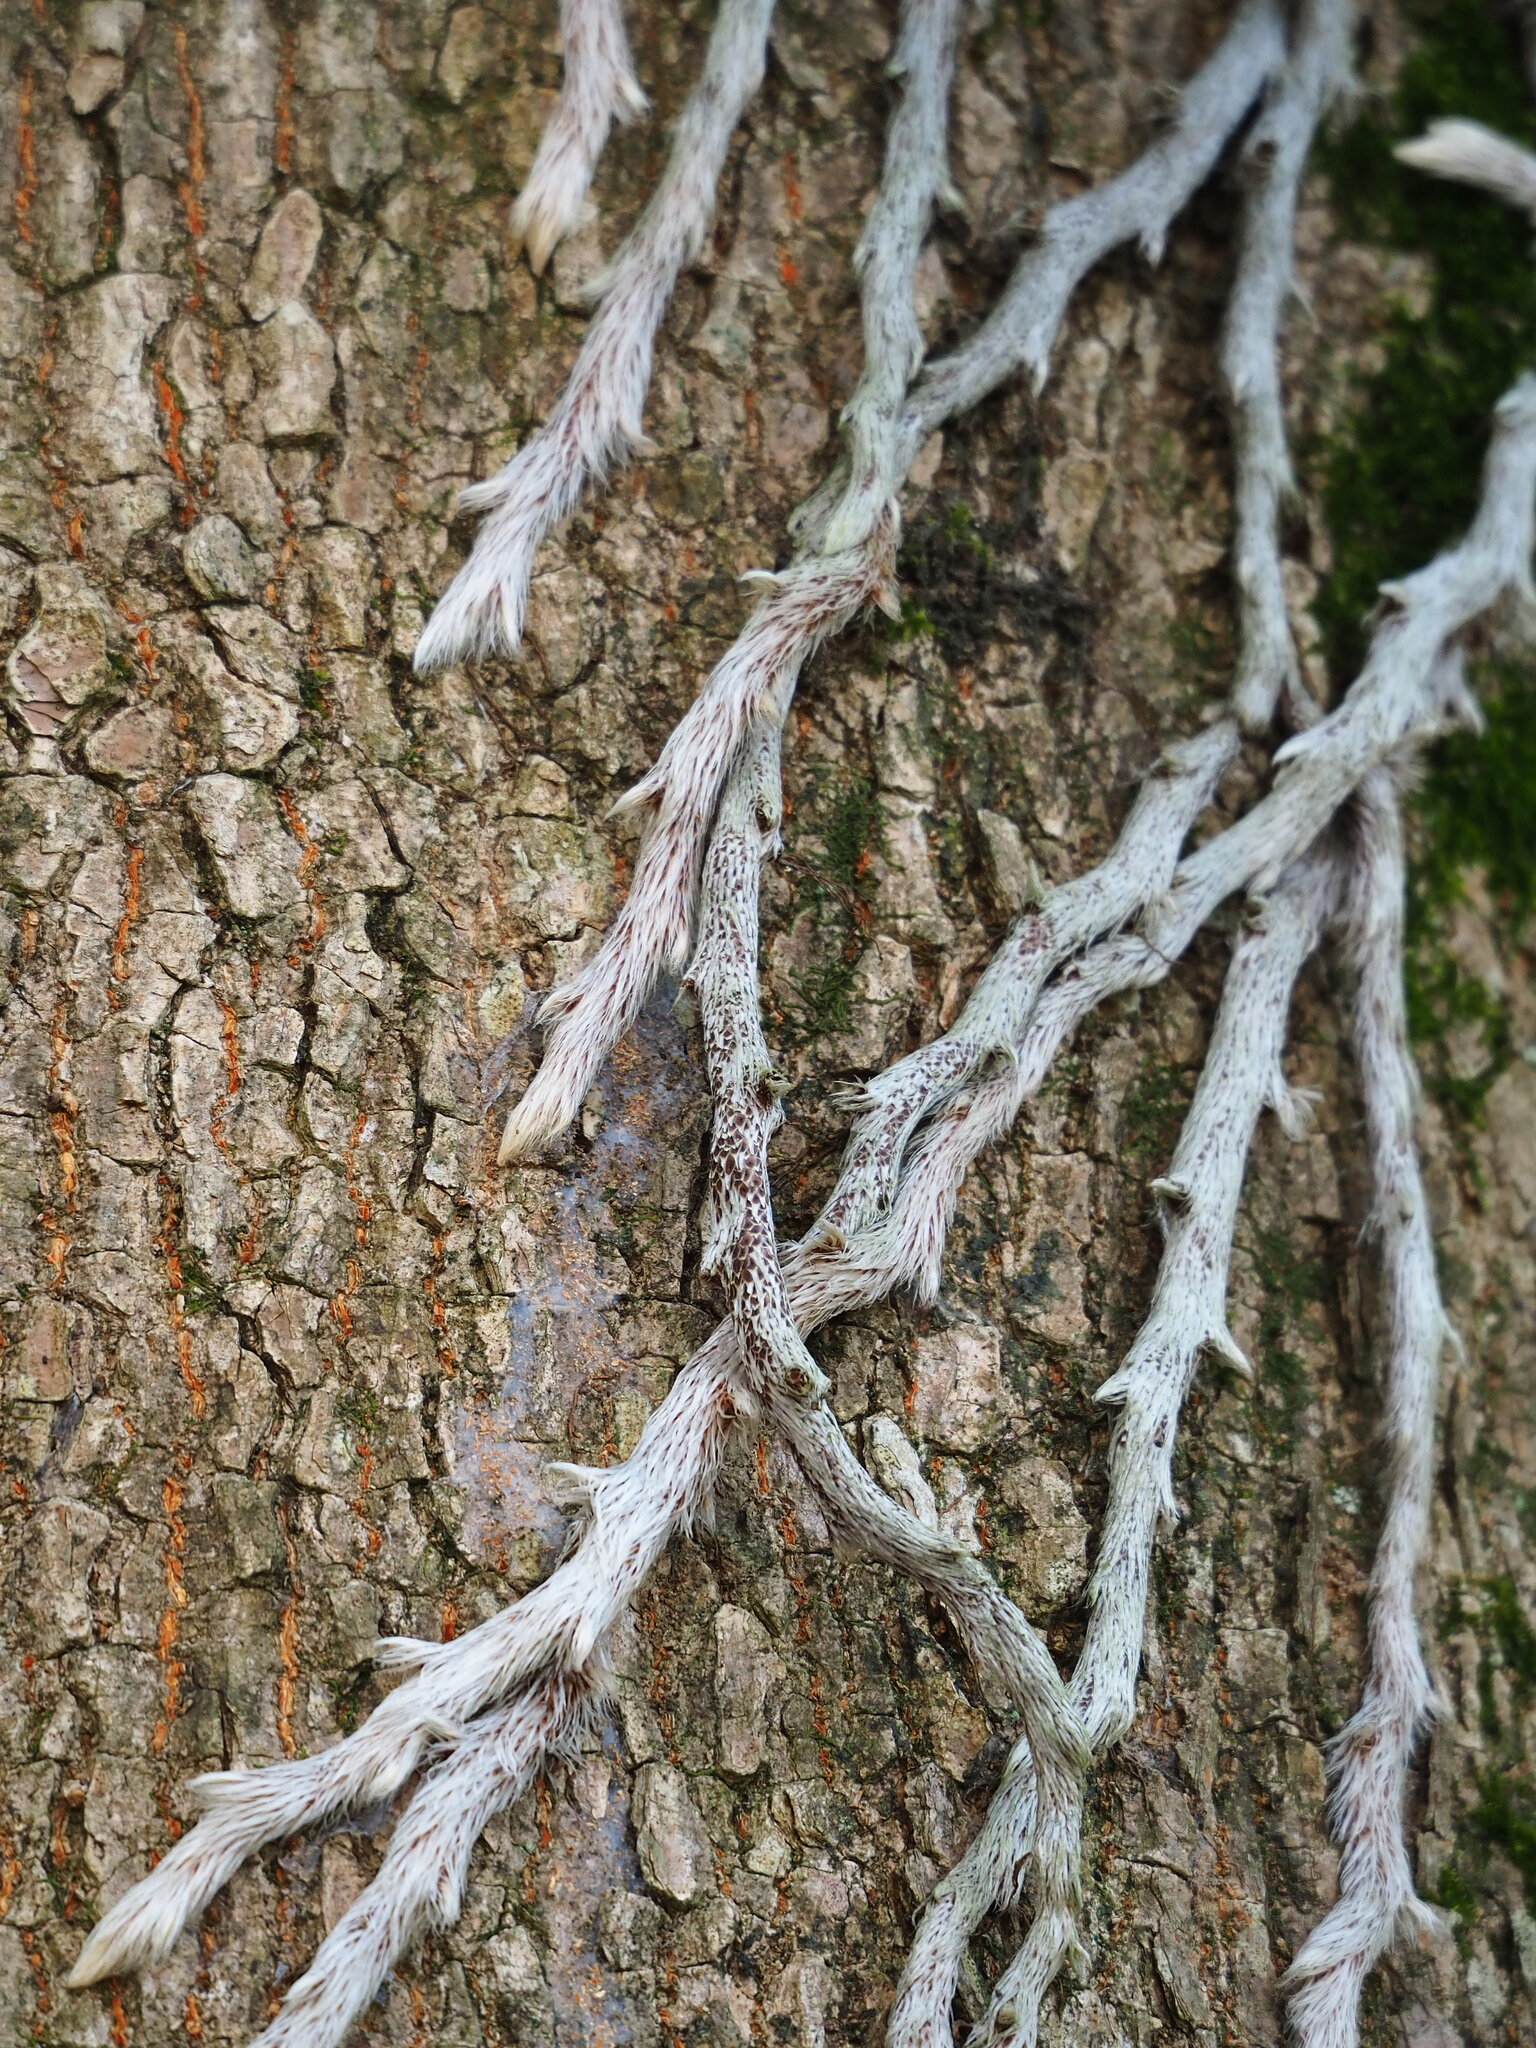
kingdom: Plantae
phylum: Tracheophyta
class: Polypodiopsida
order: Polypodiales
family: Davalliaceae
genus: Davallia
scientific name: Davallia griffithiana
